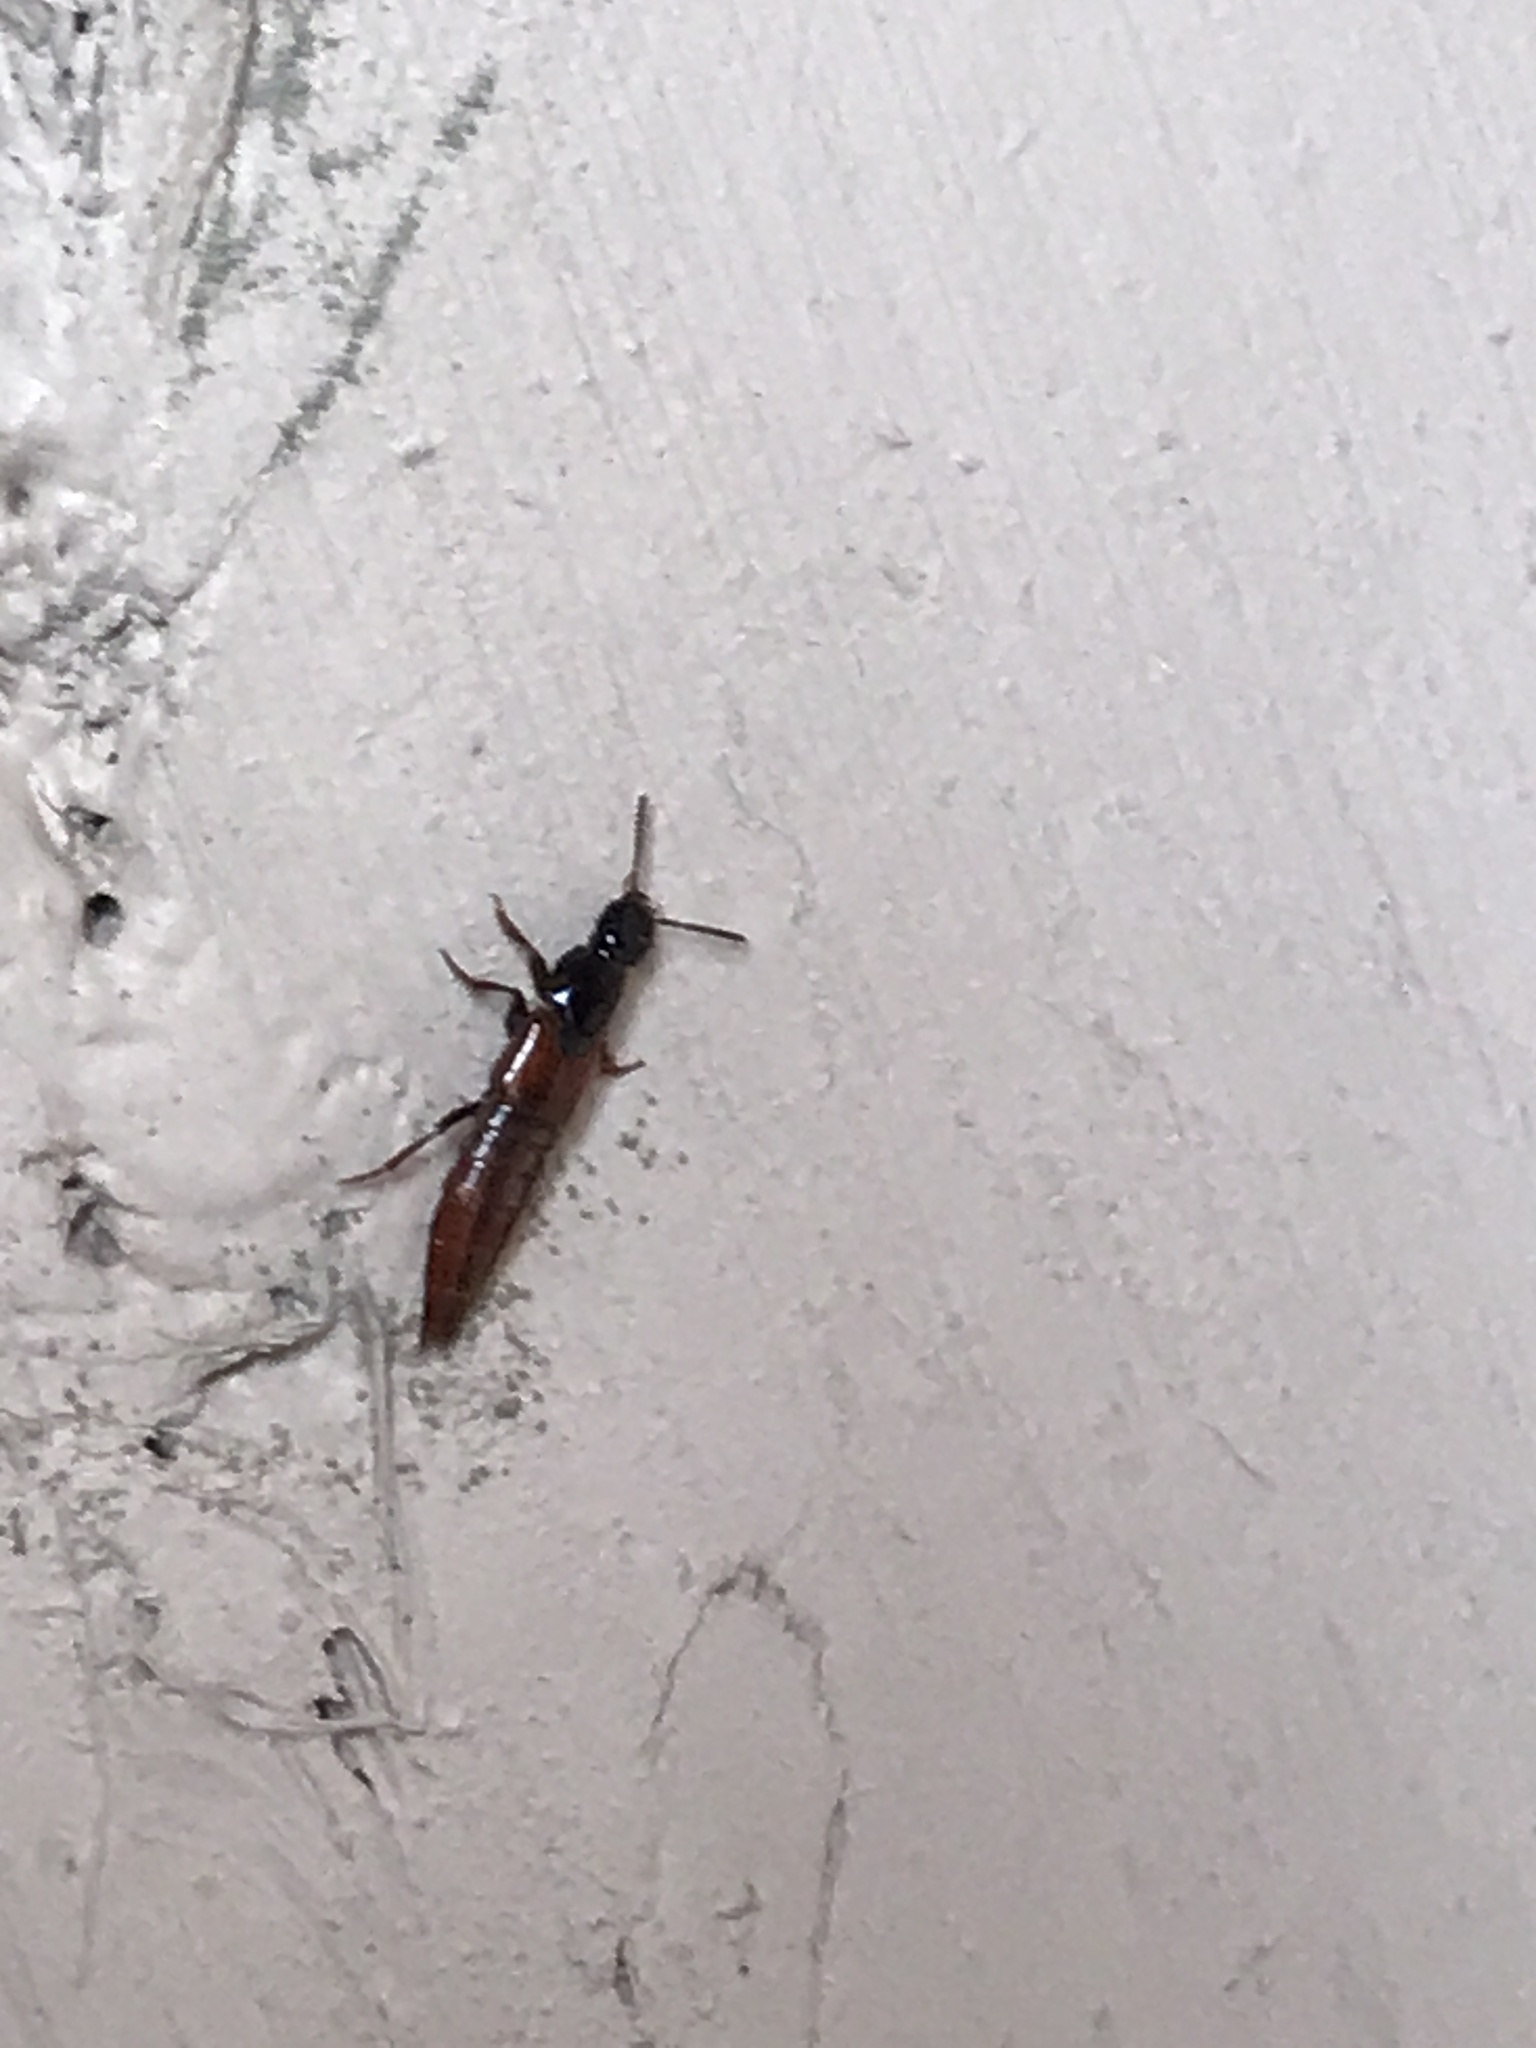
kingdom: Animalia
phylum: Arthropoda
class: Insecta
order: Coleoptera
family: Staphylinidae
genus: Quedius
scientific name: Quedius alesi
